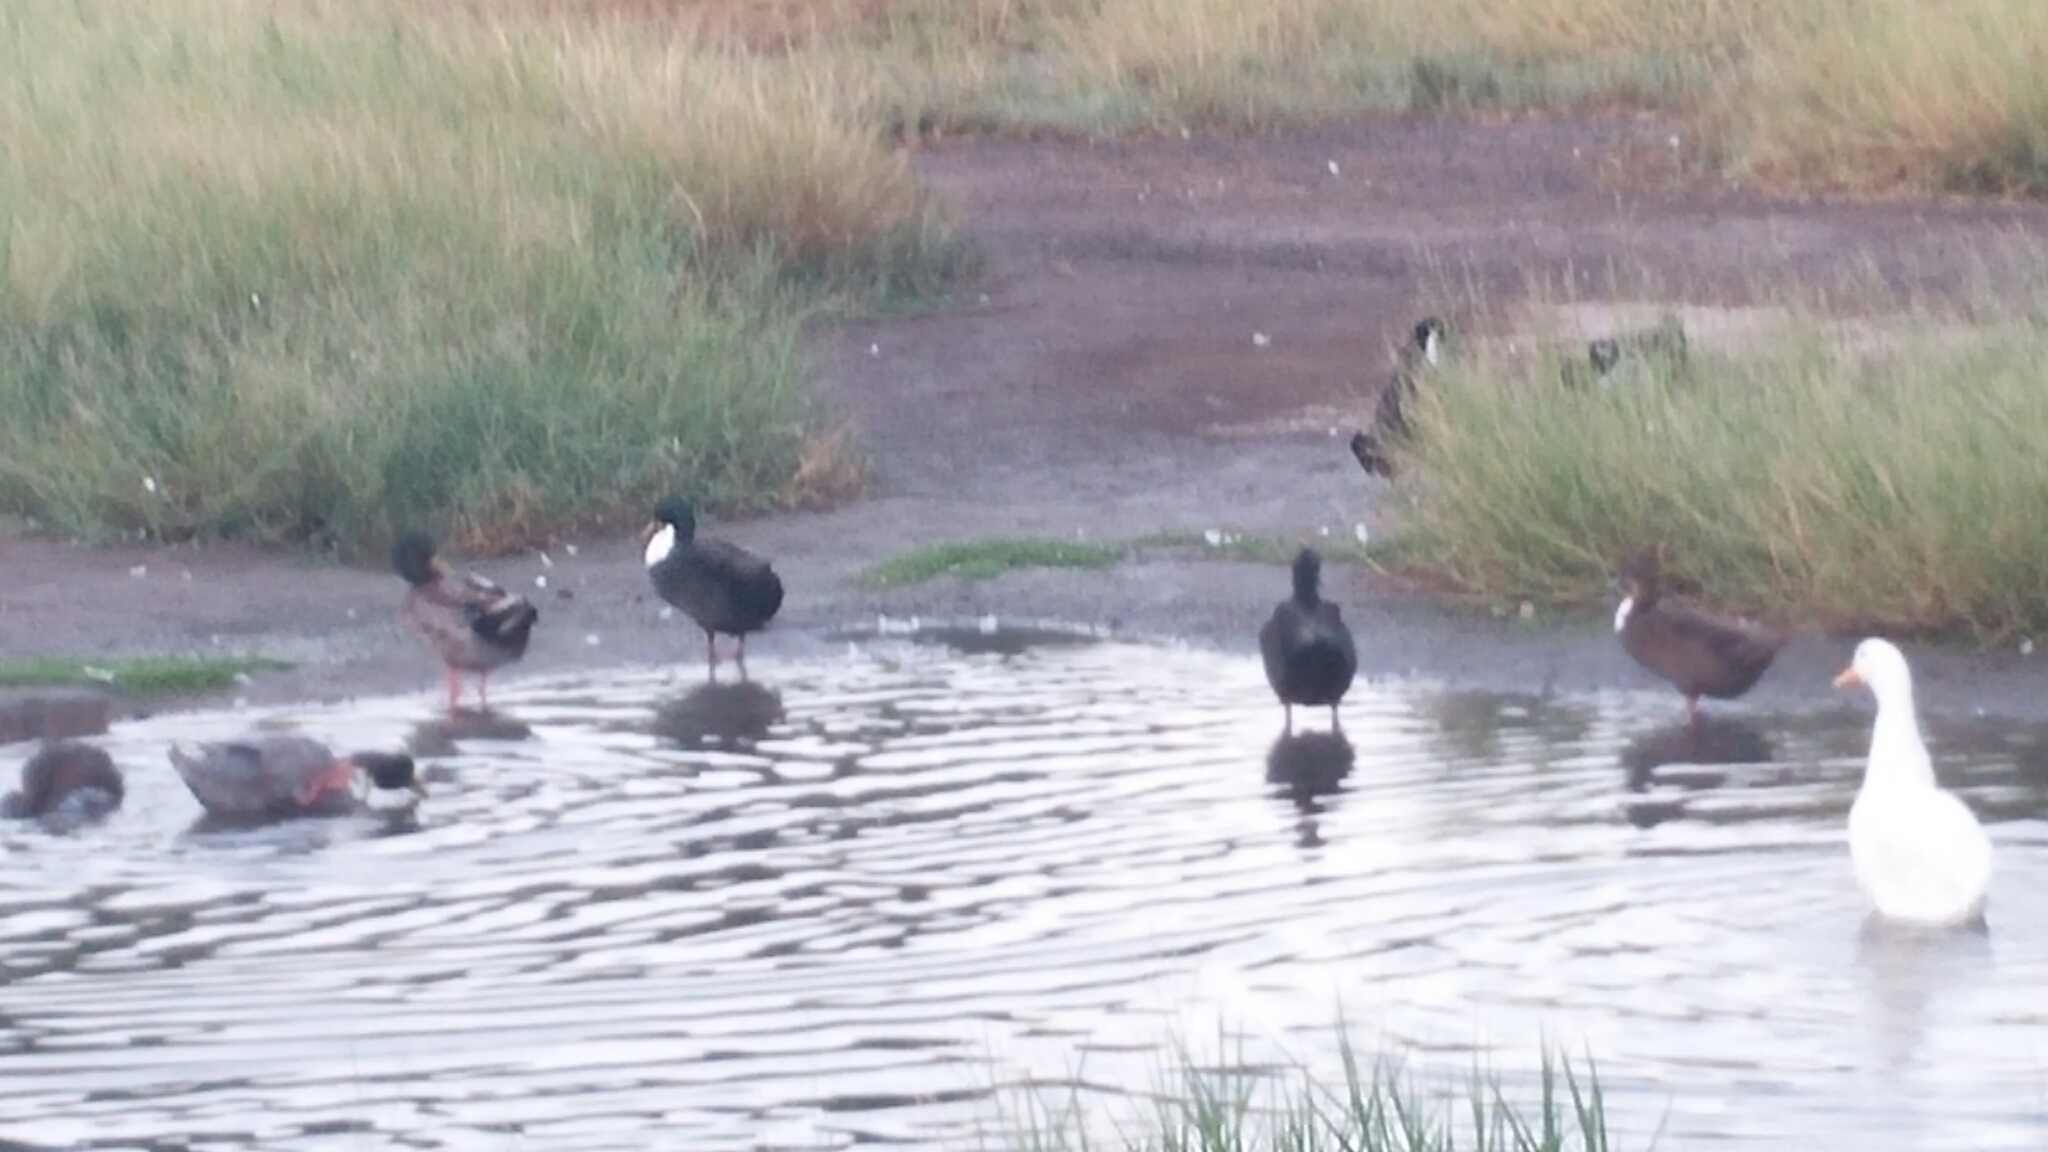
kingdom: Animalia
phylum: Chordata
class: Aves
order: Anseriformes
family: Anatidae
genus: Anas
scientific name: Anas platyrhynchos
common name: Mallard
